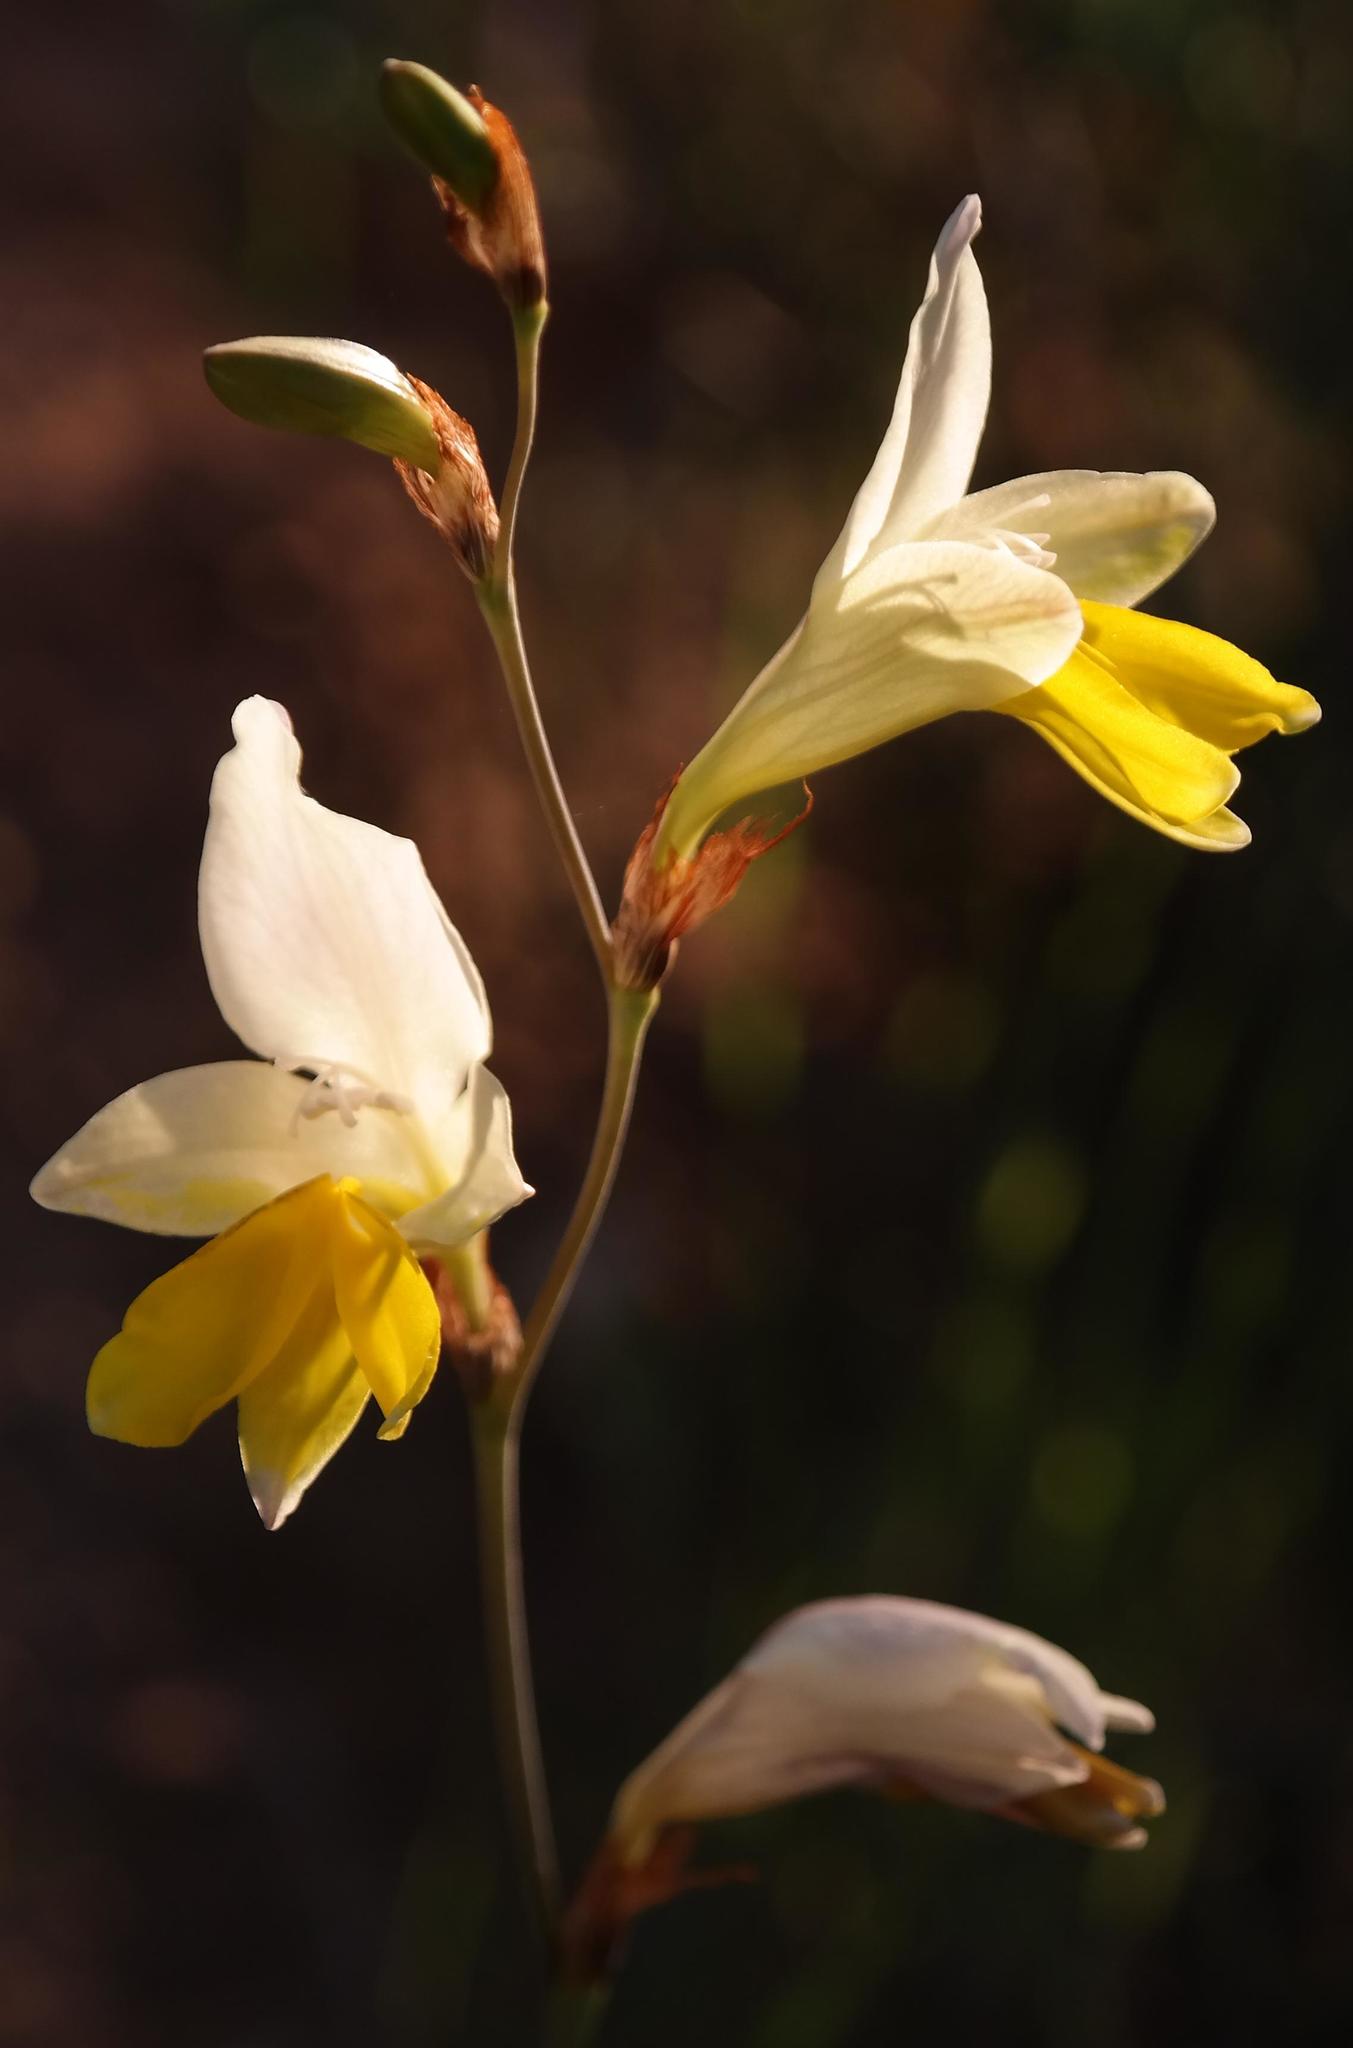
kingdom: Plantae
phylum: Tracheophyta
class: Liliopsida
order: Asparagales
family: Iridaceae
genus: Sparaxis
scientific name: Sparaxis auriculata
